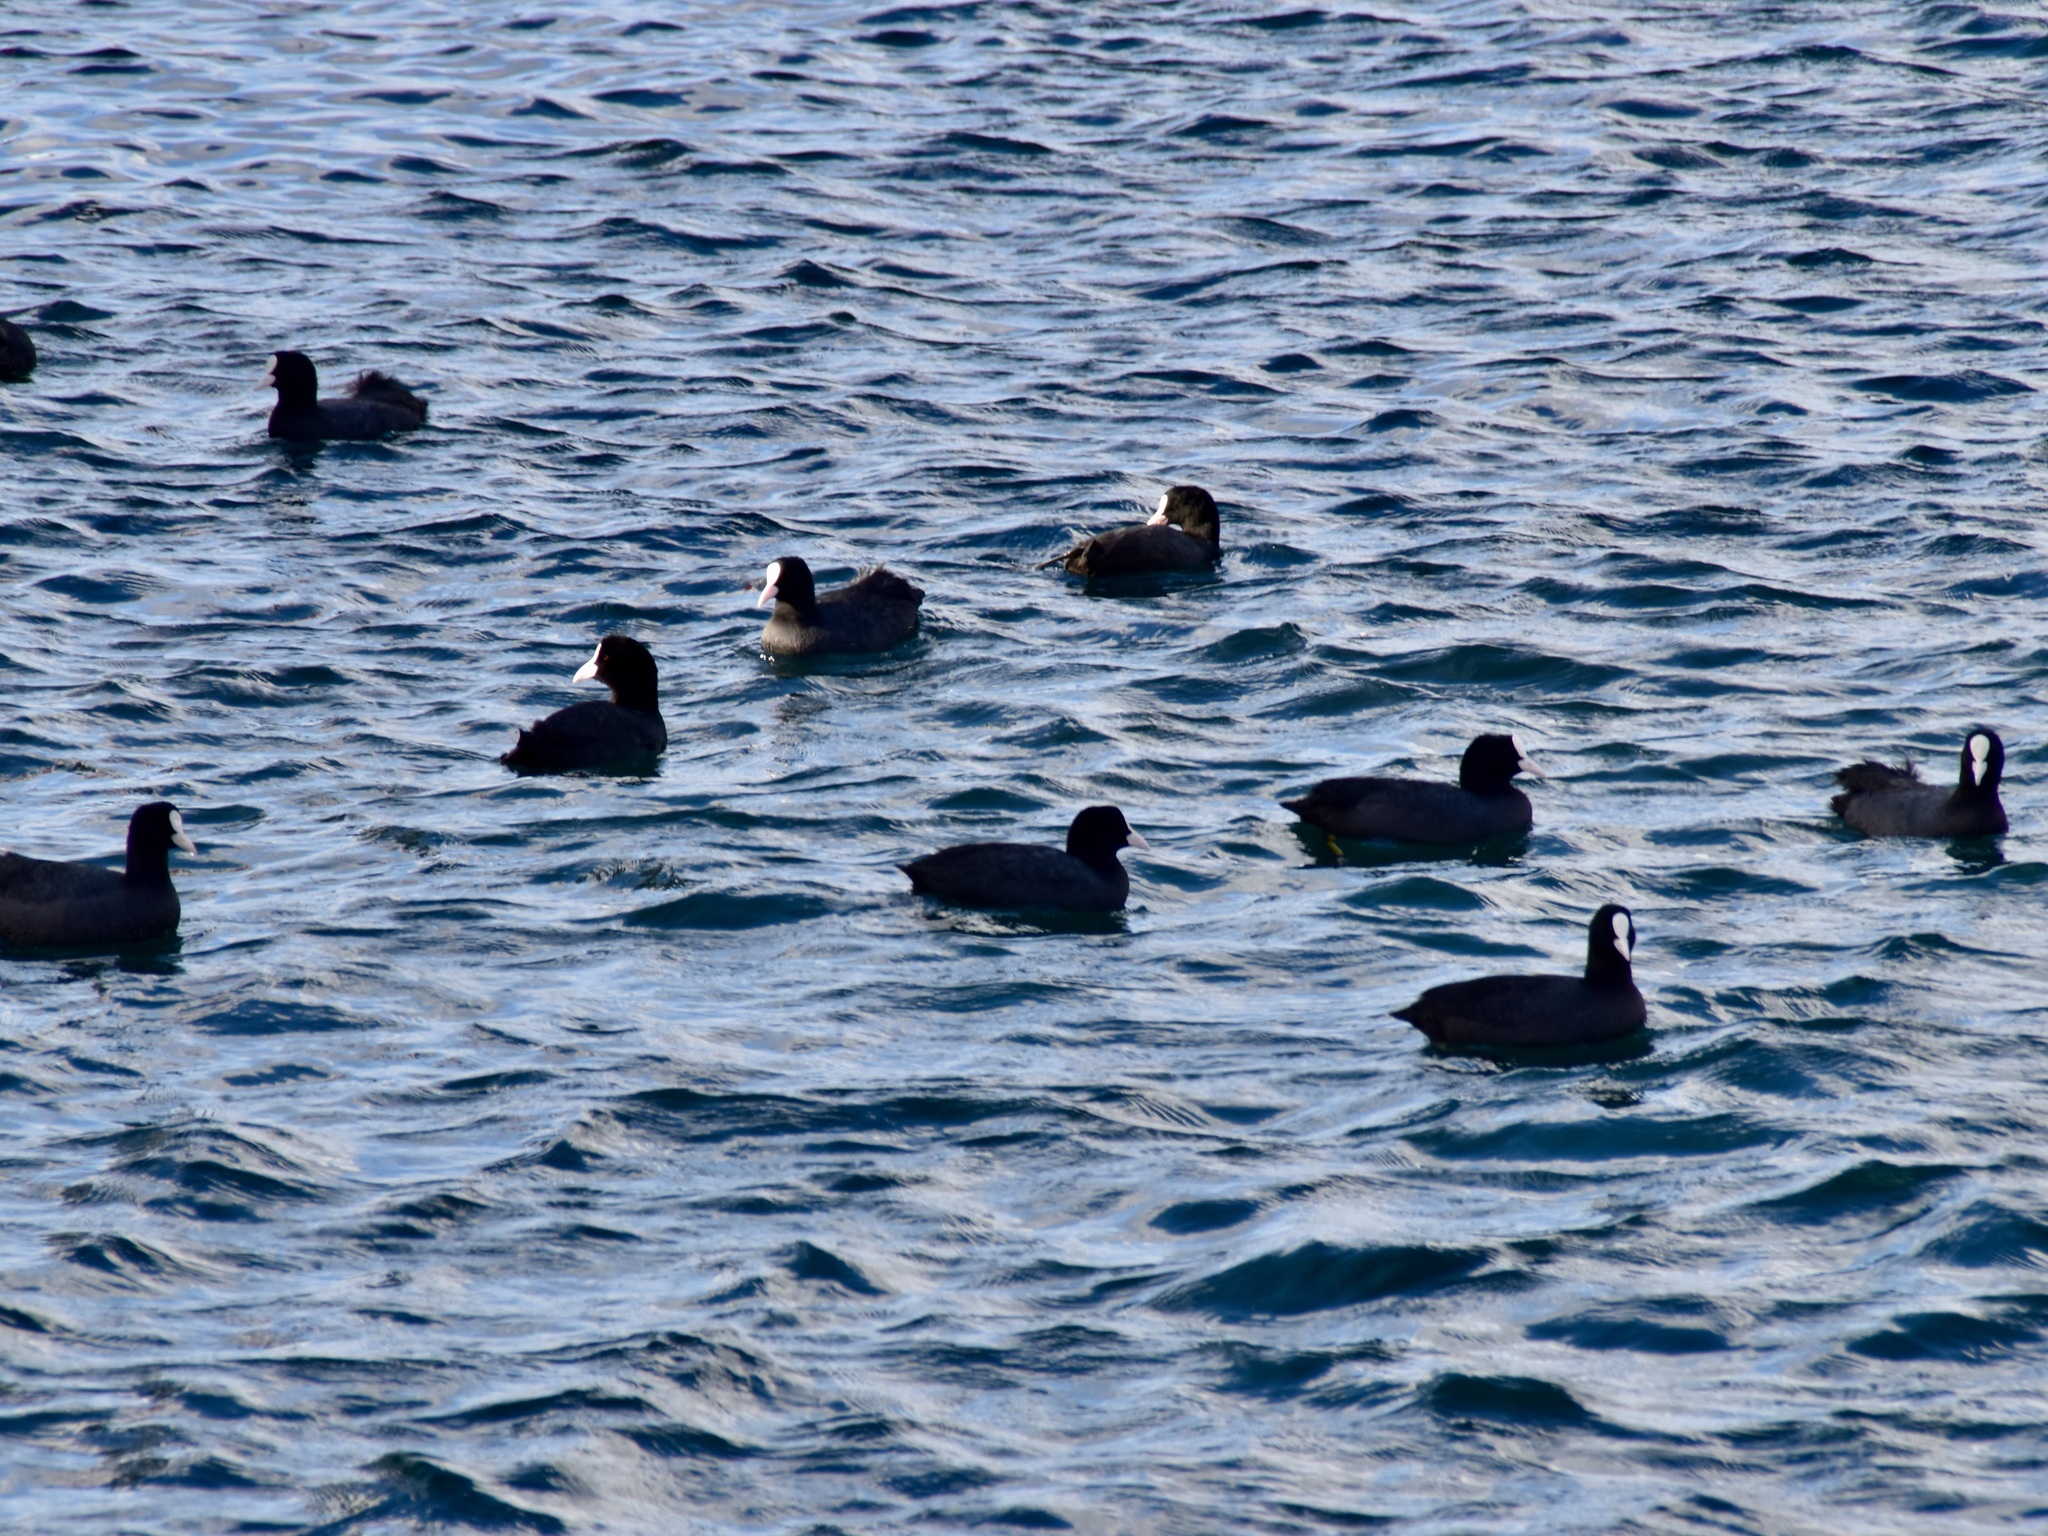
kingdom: Animalia
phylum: Chordata
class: Aves
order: Gruiformes
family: Rallidae
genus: Fulica
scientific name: Fulica atra
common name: Eurasian coot
